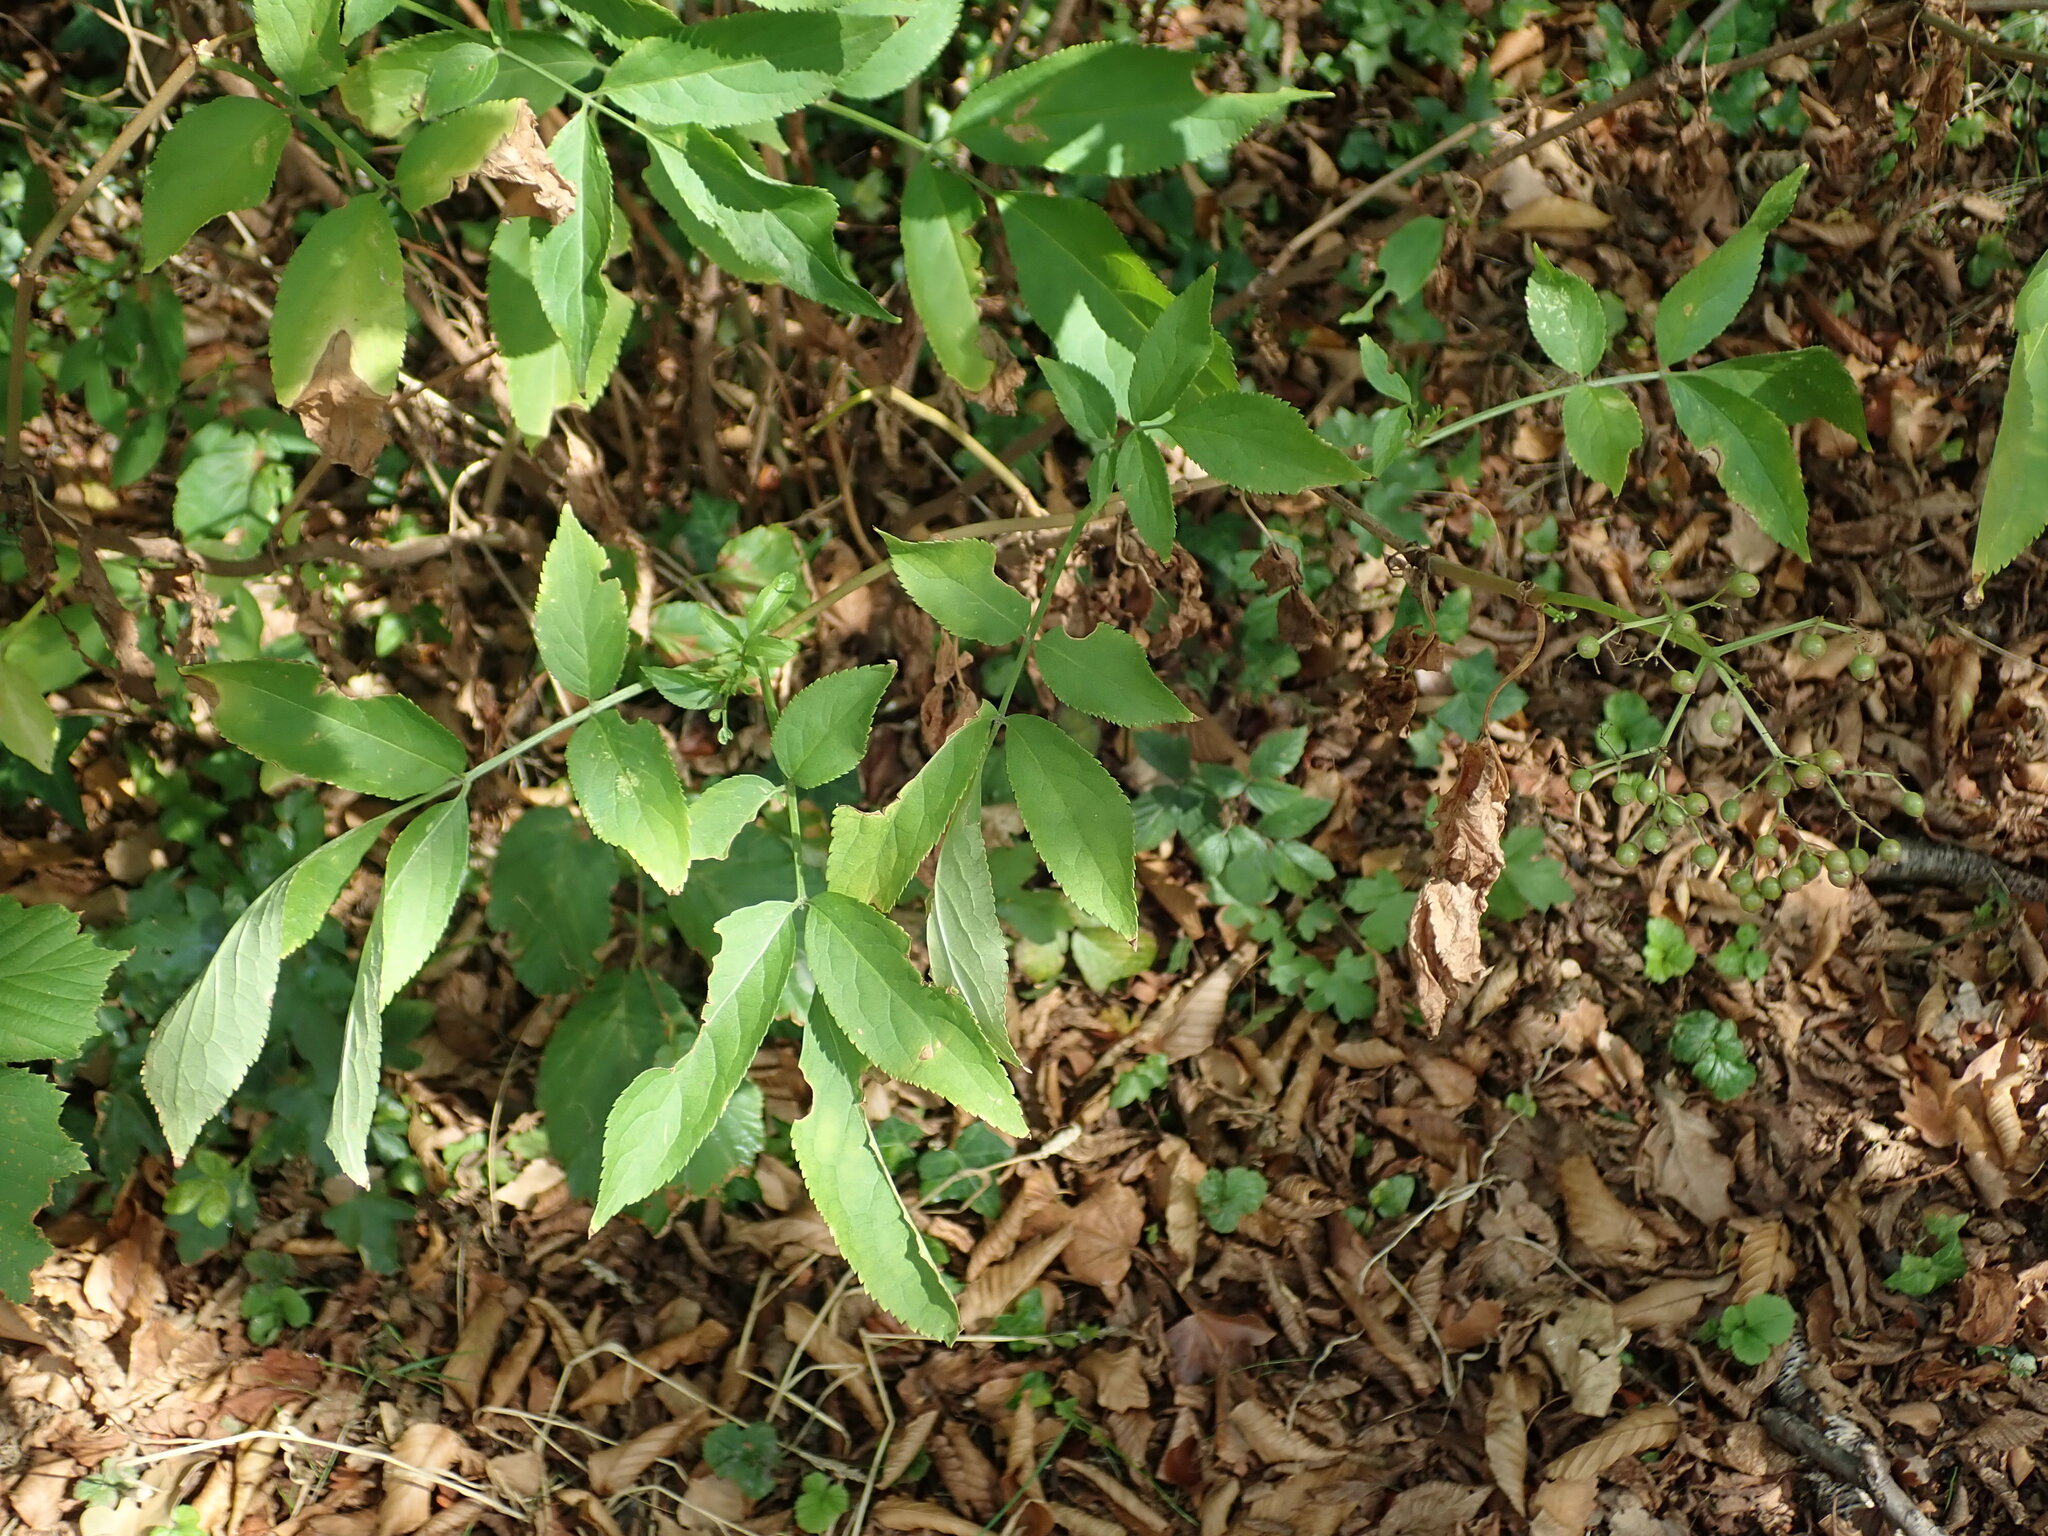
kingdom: Plantae
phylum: Tracheophyta
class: Magnoliopsida
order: Dipsacales
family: Viburnaceae
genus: Sambucus
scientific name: Sambucus nigra
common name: Elder
